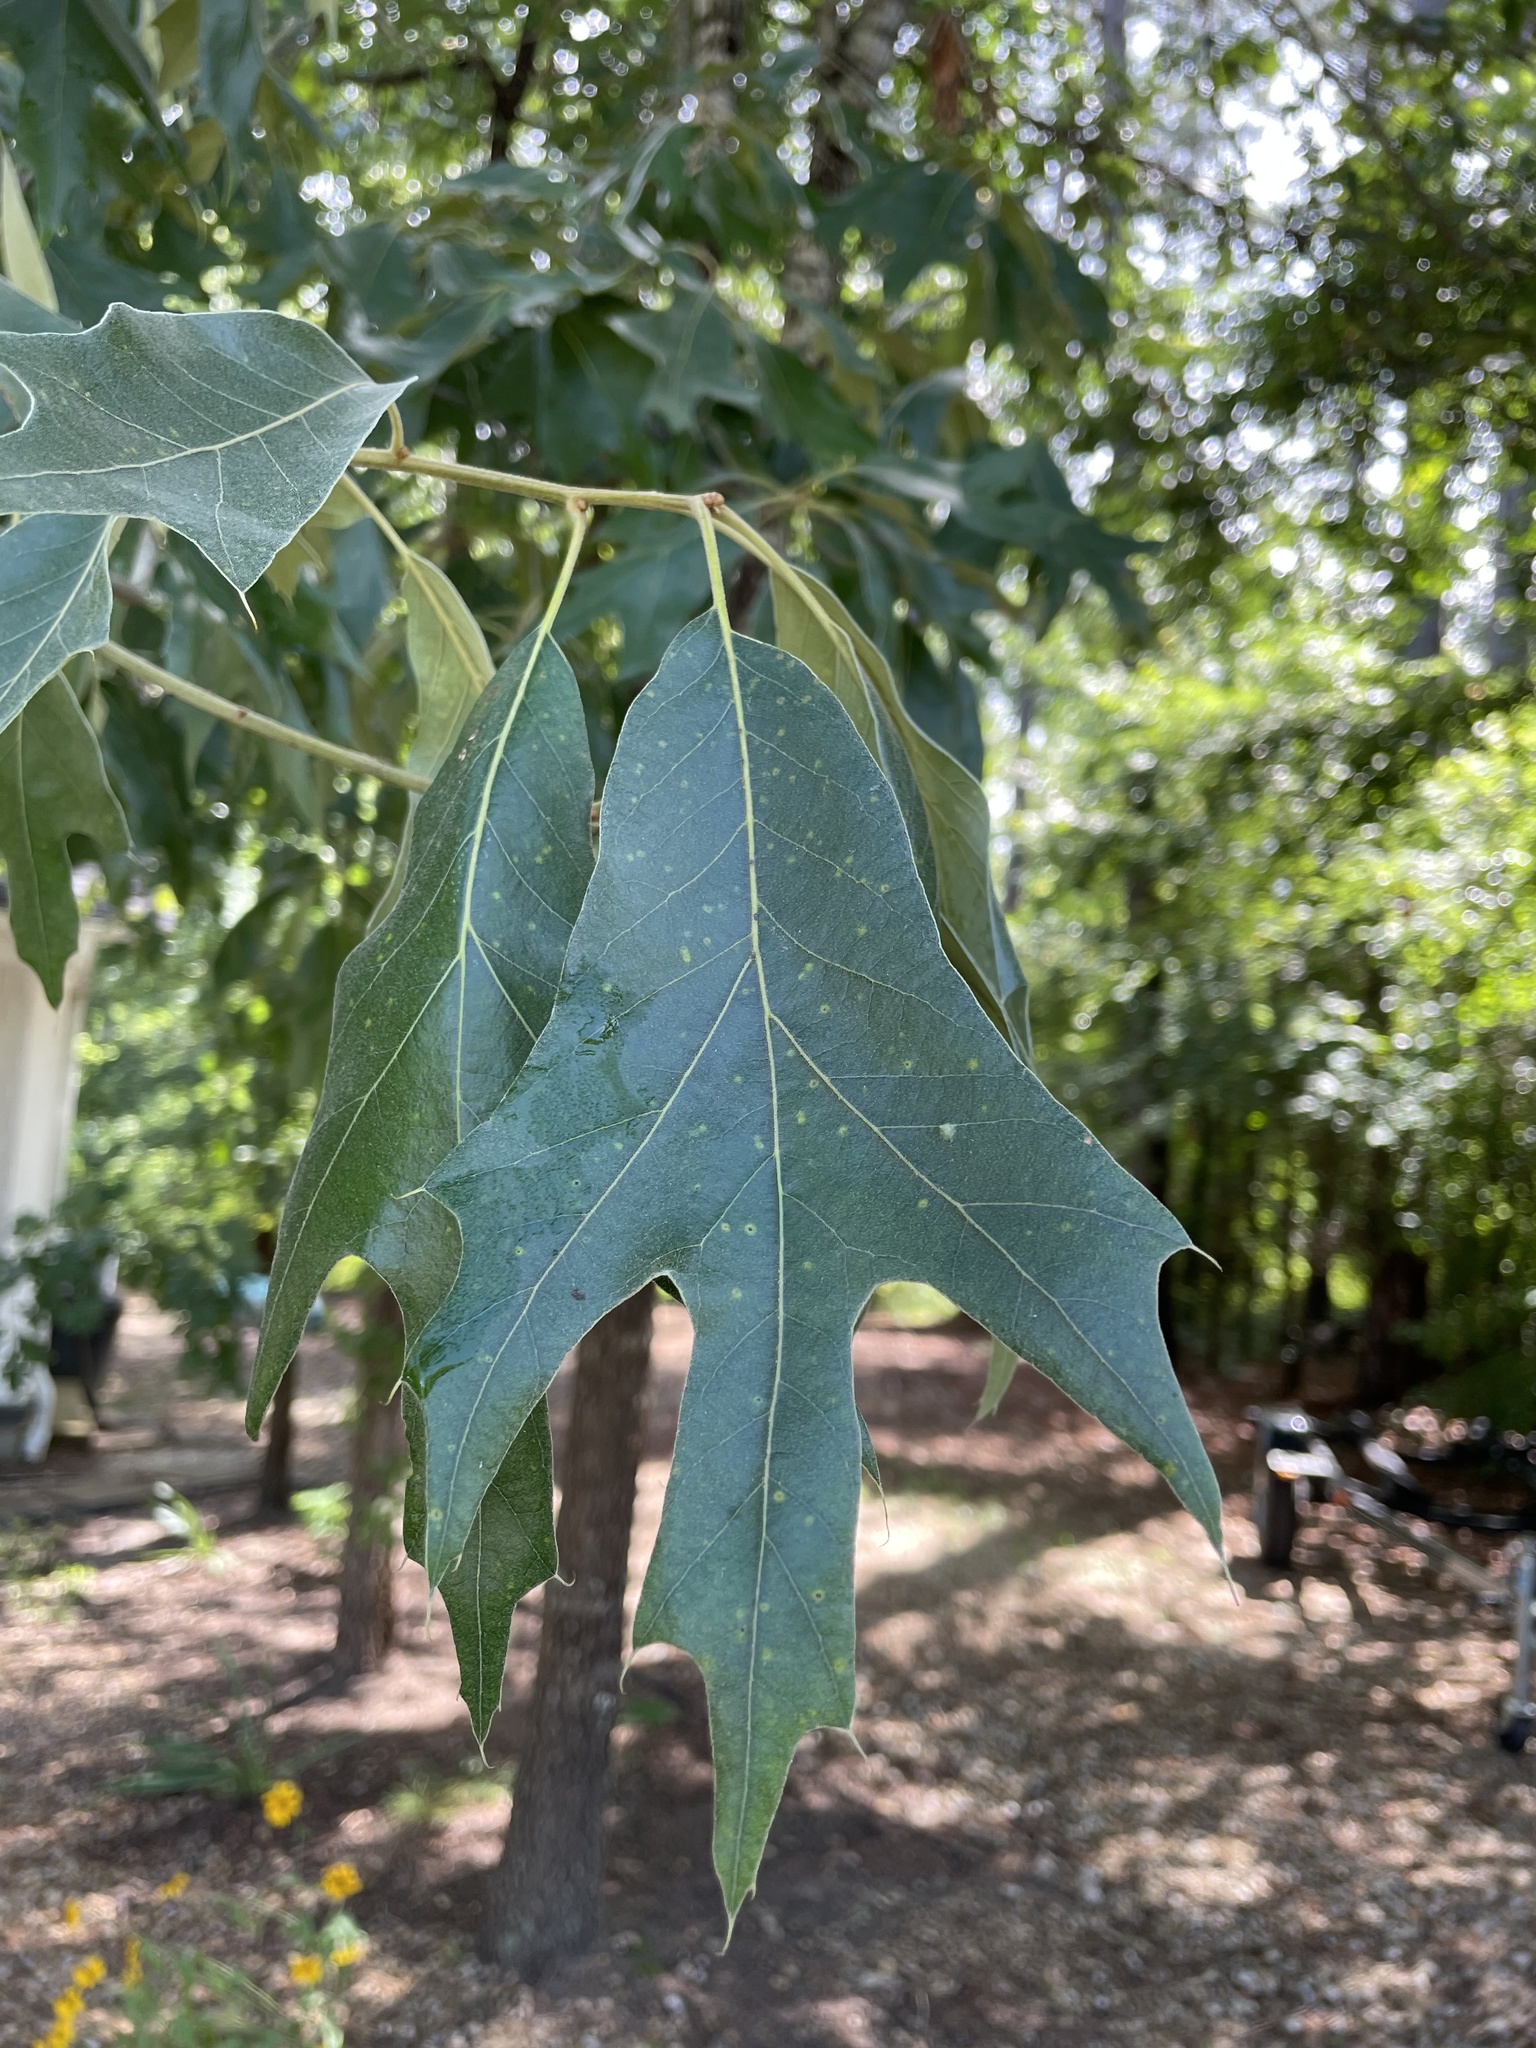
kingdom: Plantae
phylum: Tracheophyta
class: Magnoliopsida
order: Fagales
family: Fagaceae
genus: Quercus
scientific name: Quercus falcata
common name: Southern red oak
